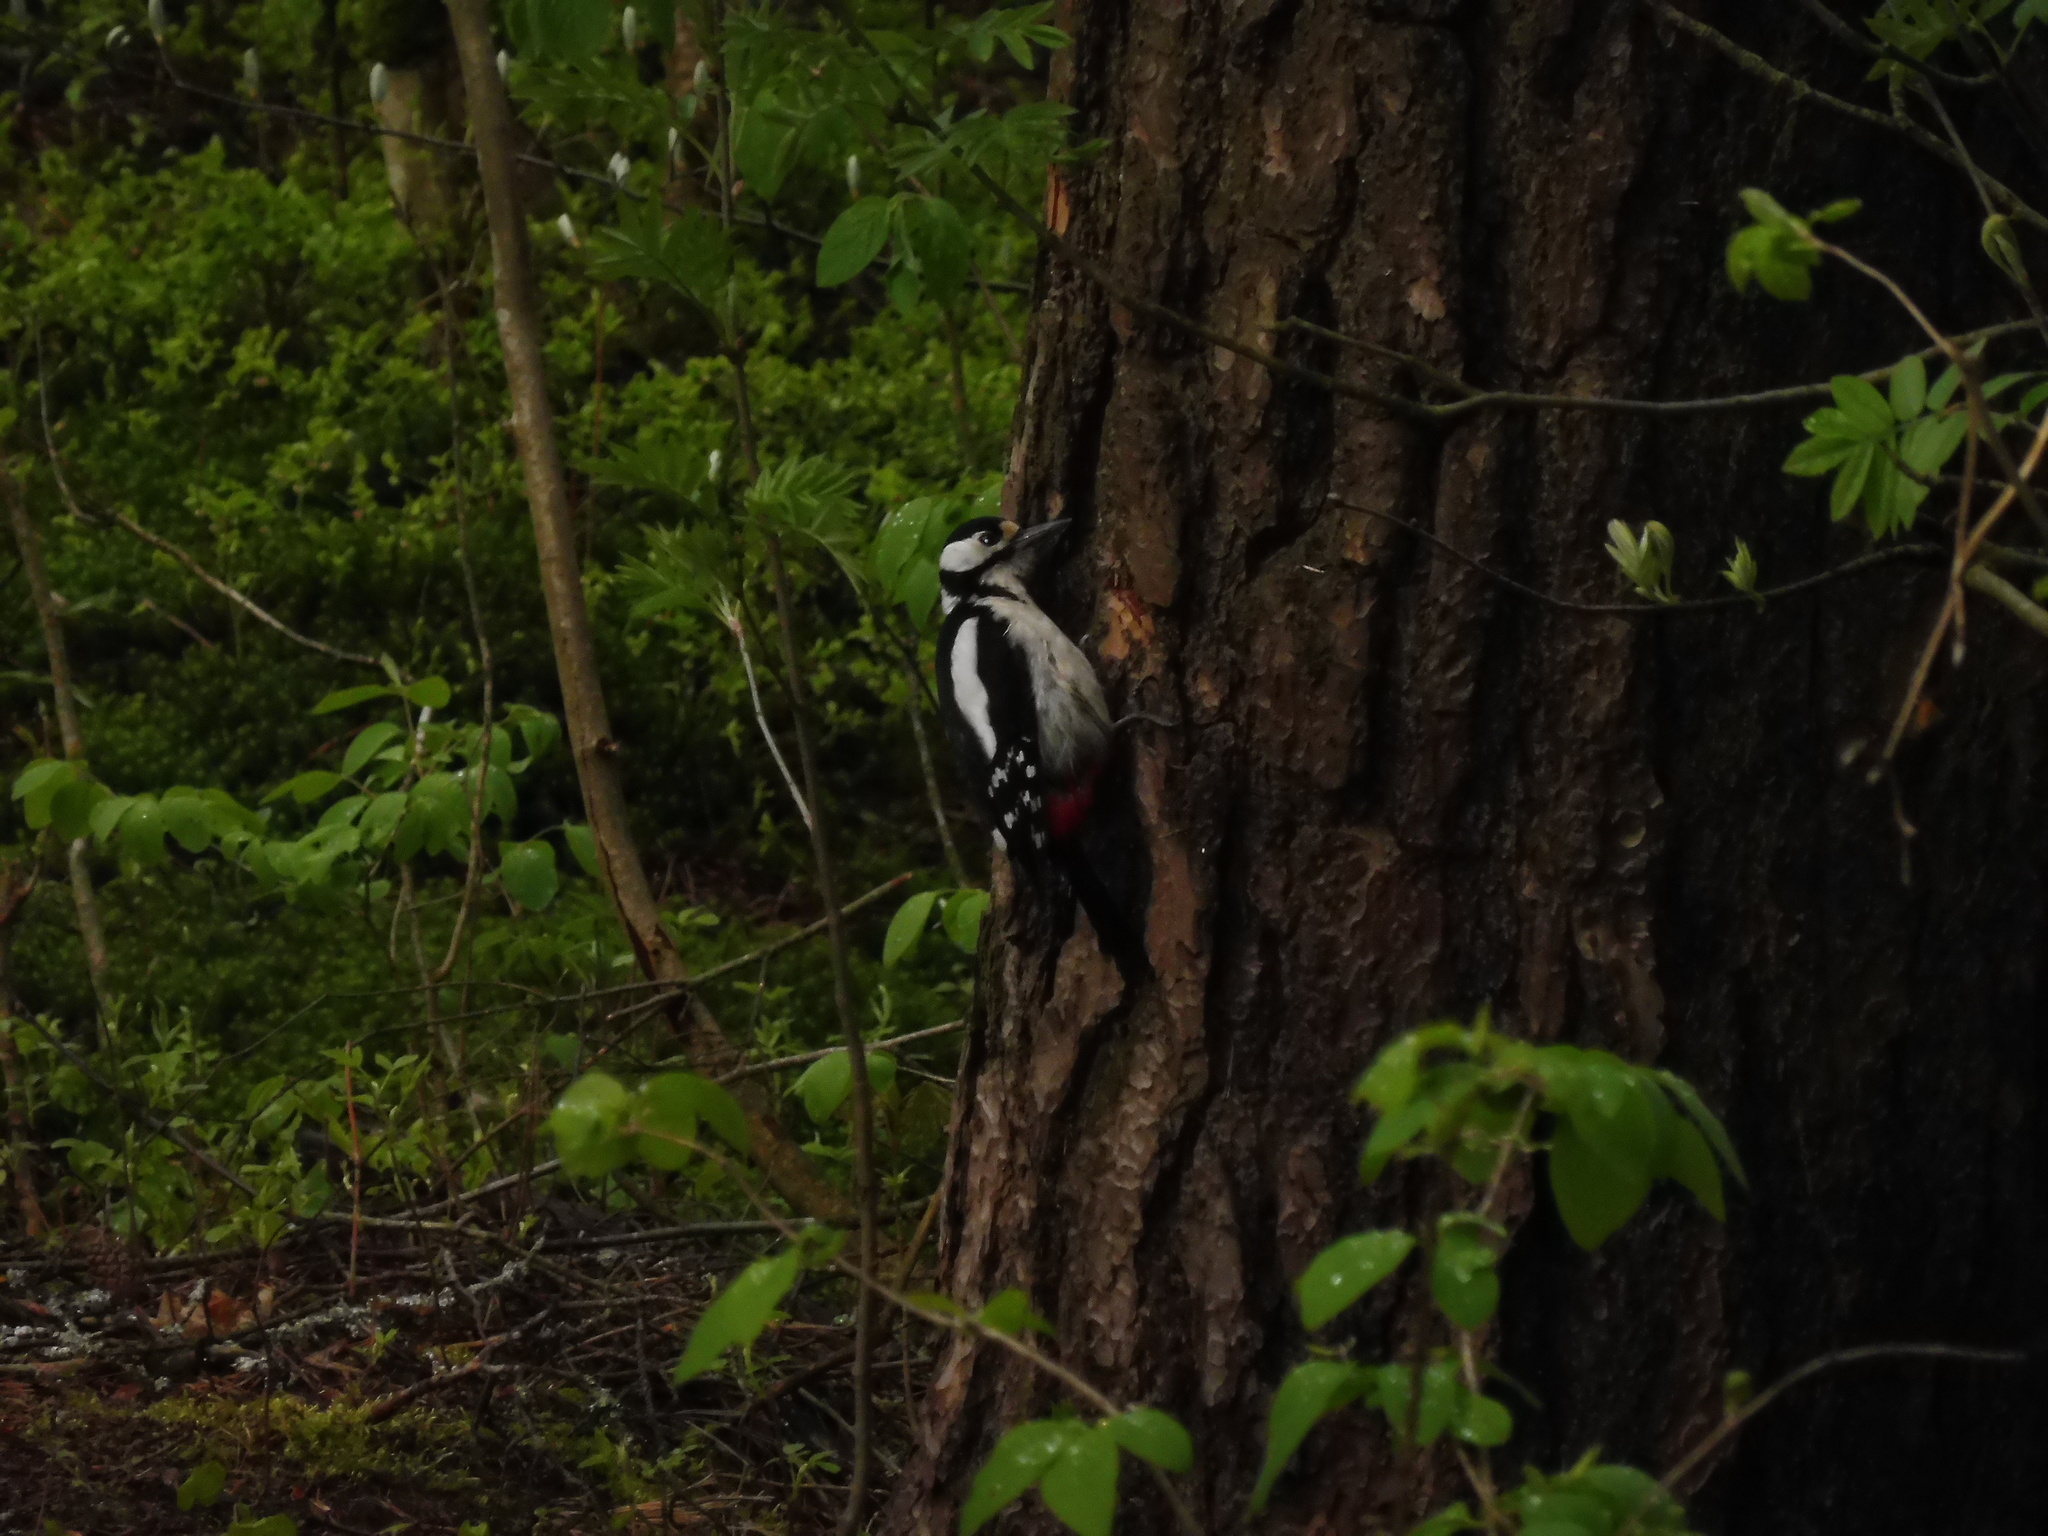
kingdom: Animalia
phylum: Chordata
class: Aves
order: Piciformes
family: Picidae
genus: Dendrocopos
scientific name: Dendrocopos major
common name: Great spotted woodpecker
